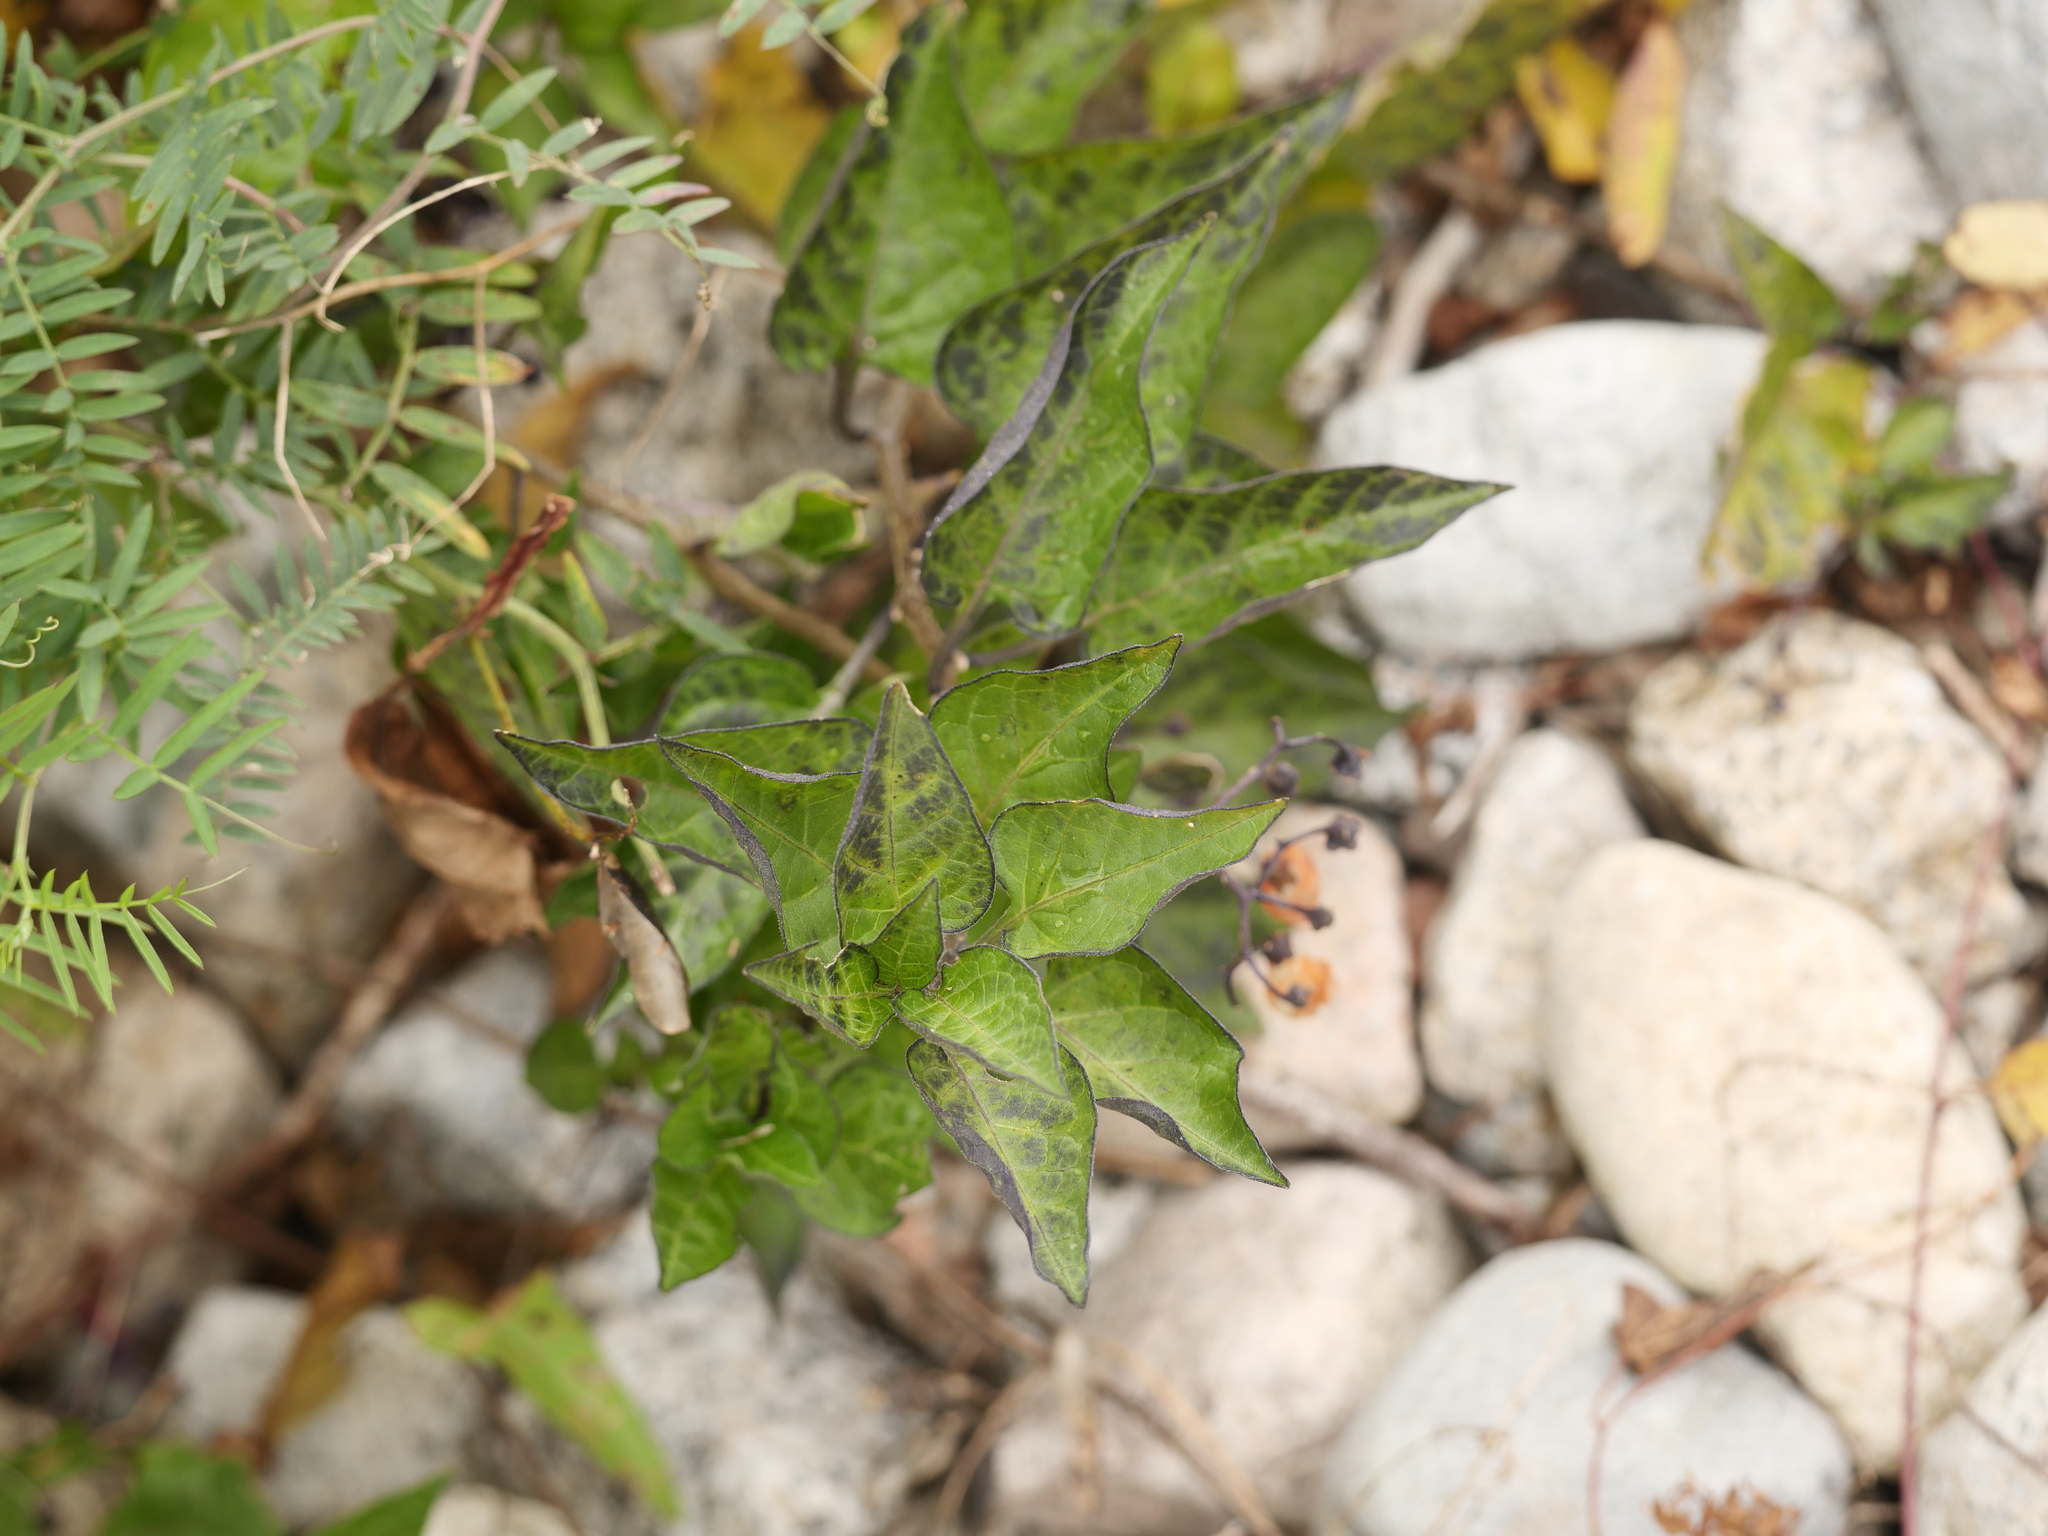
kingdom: Plantae
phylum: Tracheophyta
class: Magnoliopsida
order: Solanales
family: Solanaceae
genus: Solanum
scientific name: Solanum dulcamara
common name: Climbing nightshade
